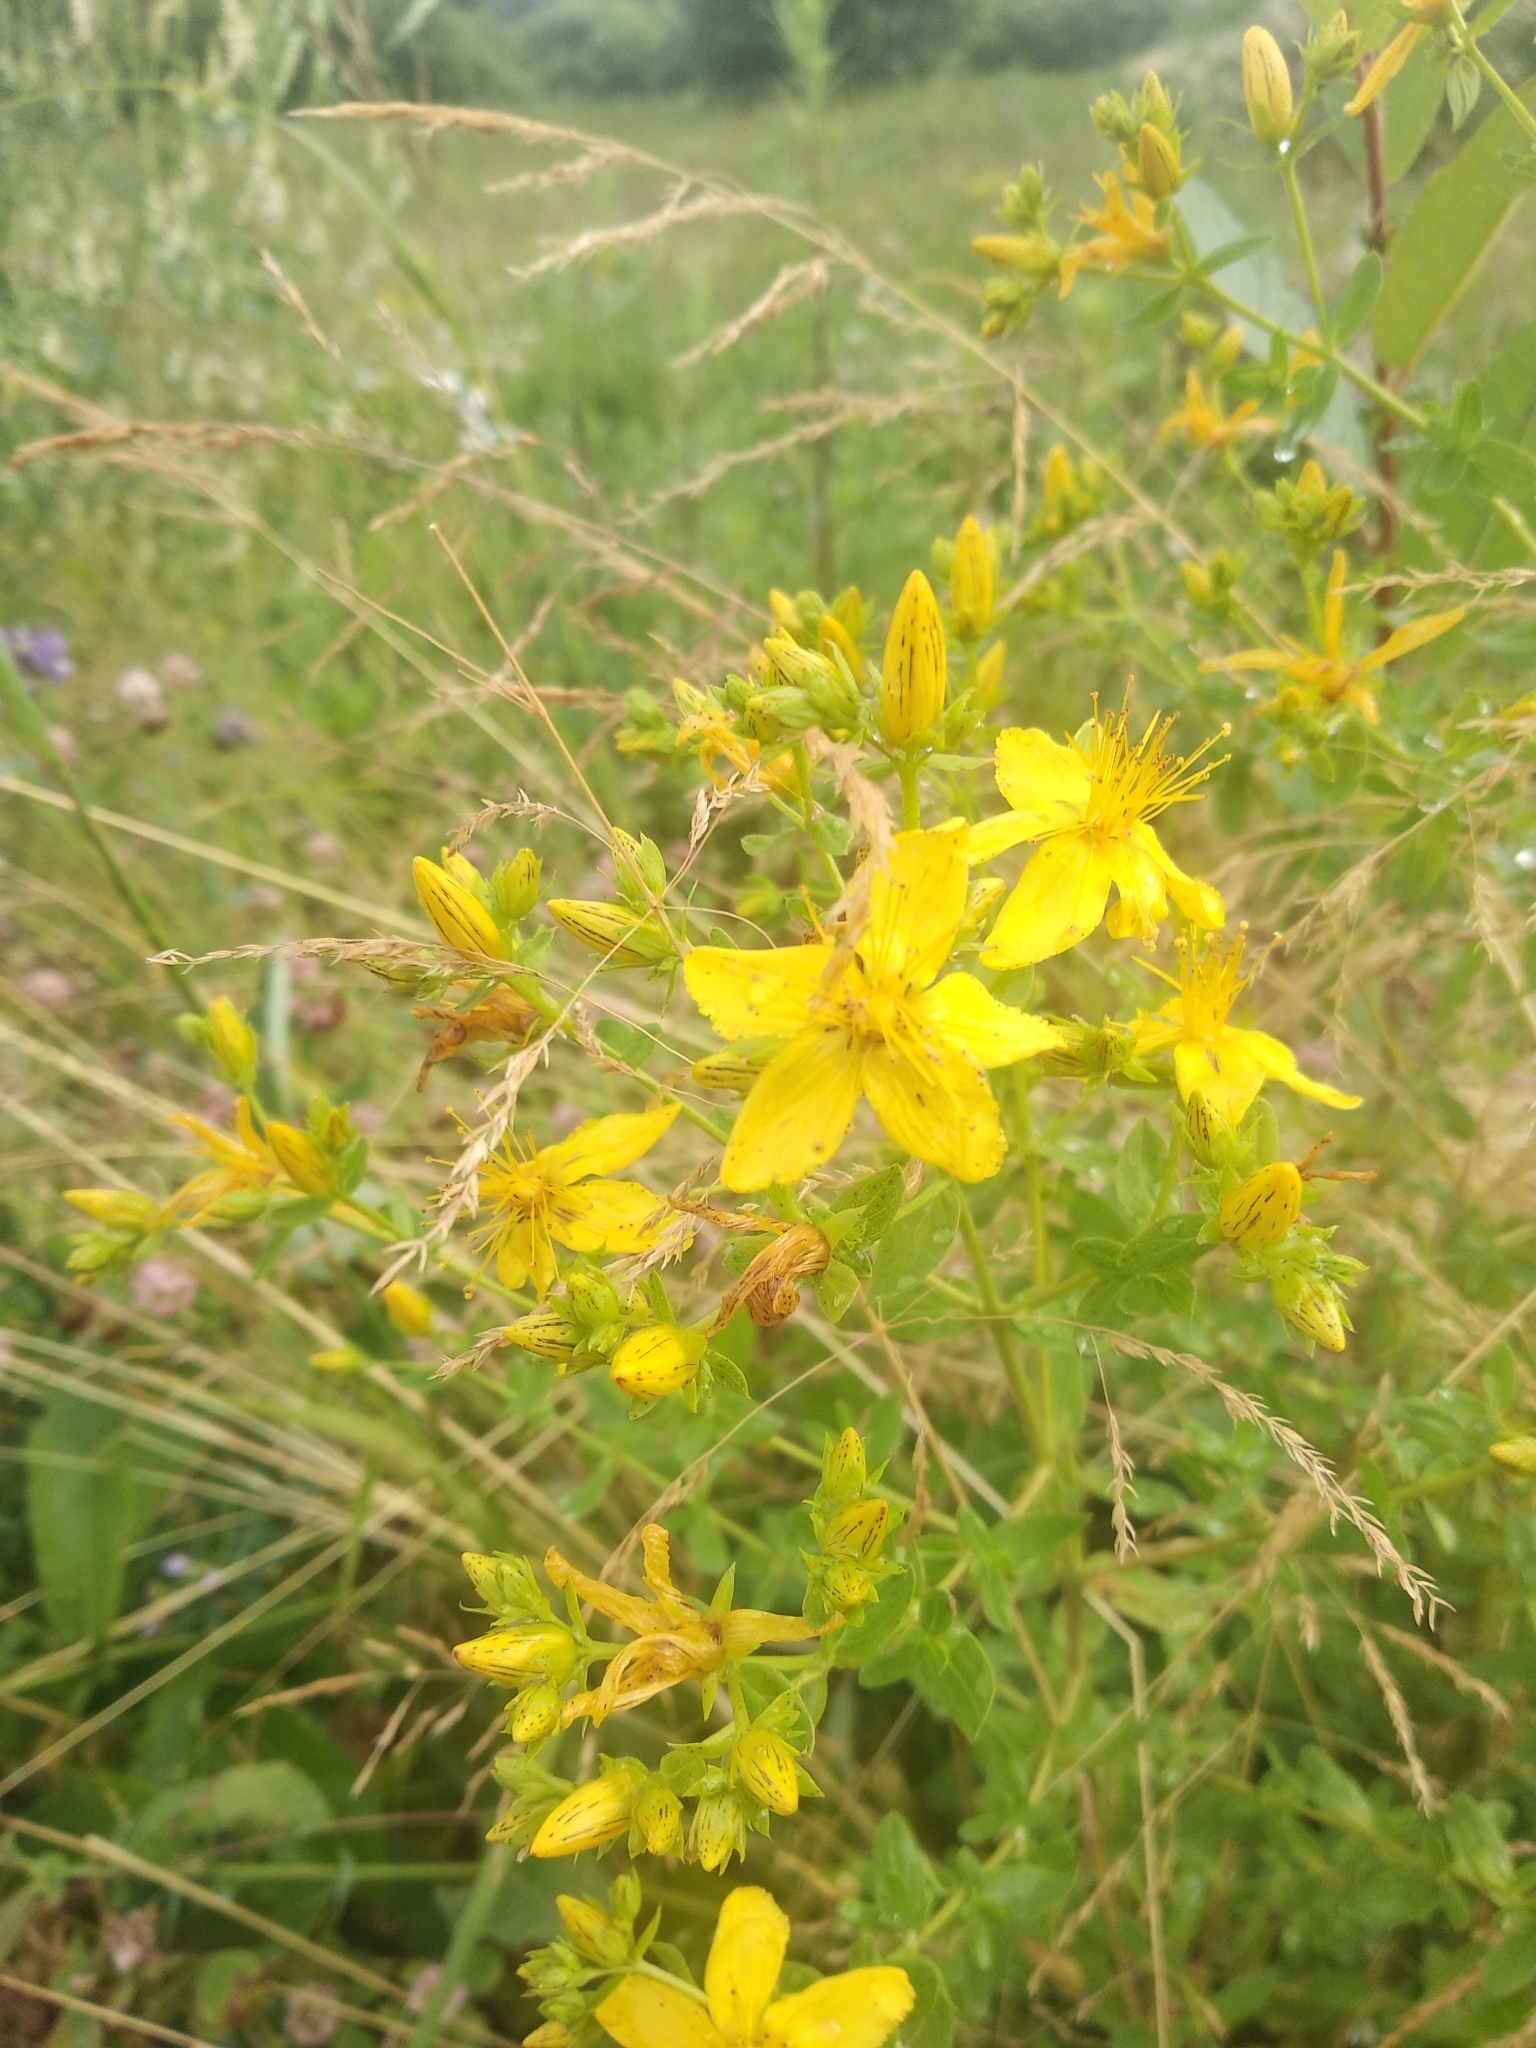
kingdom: Plantae
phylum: Tracheophyta
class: Magnoliopsida
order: Malpighiales
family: Hypericaceae
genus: Hypericum
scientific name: Hypericum maculatum
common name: Imperforate st. john's-wort
